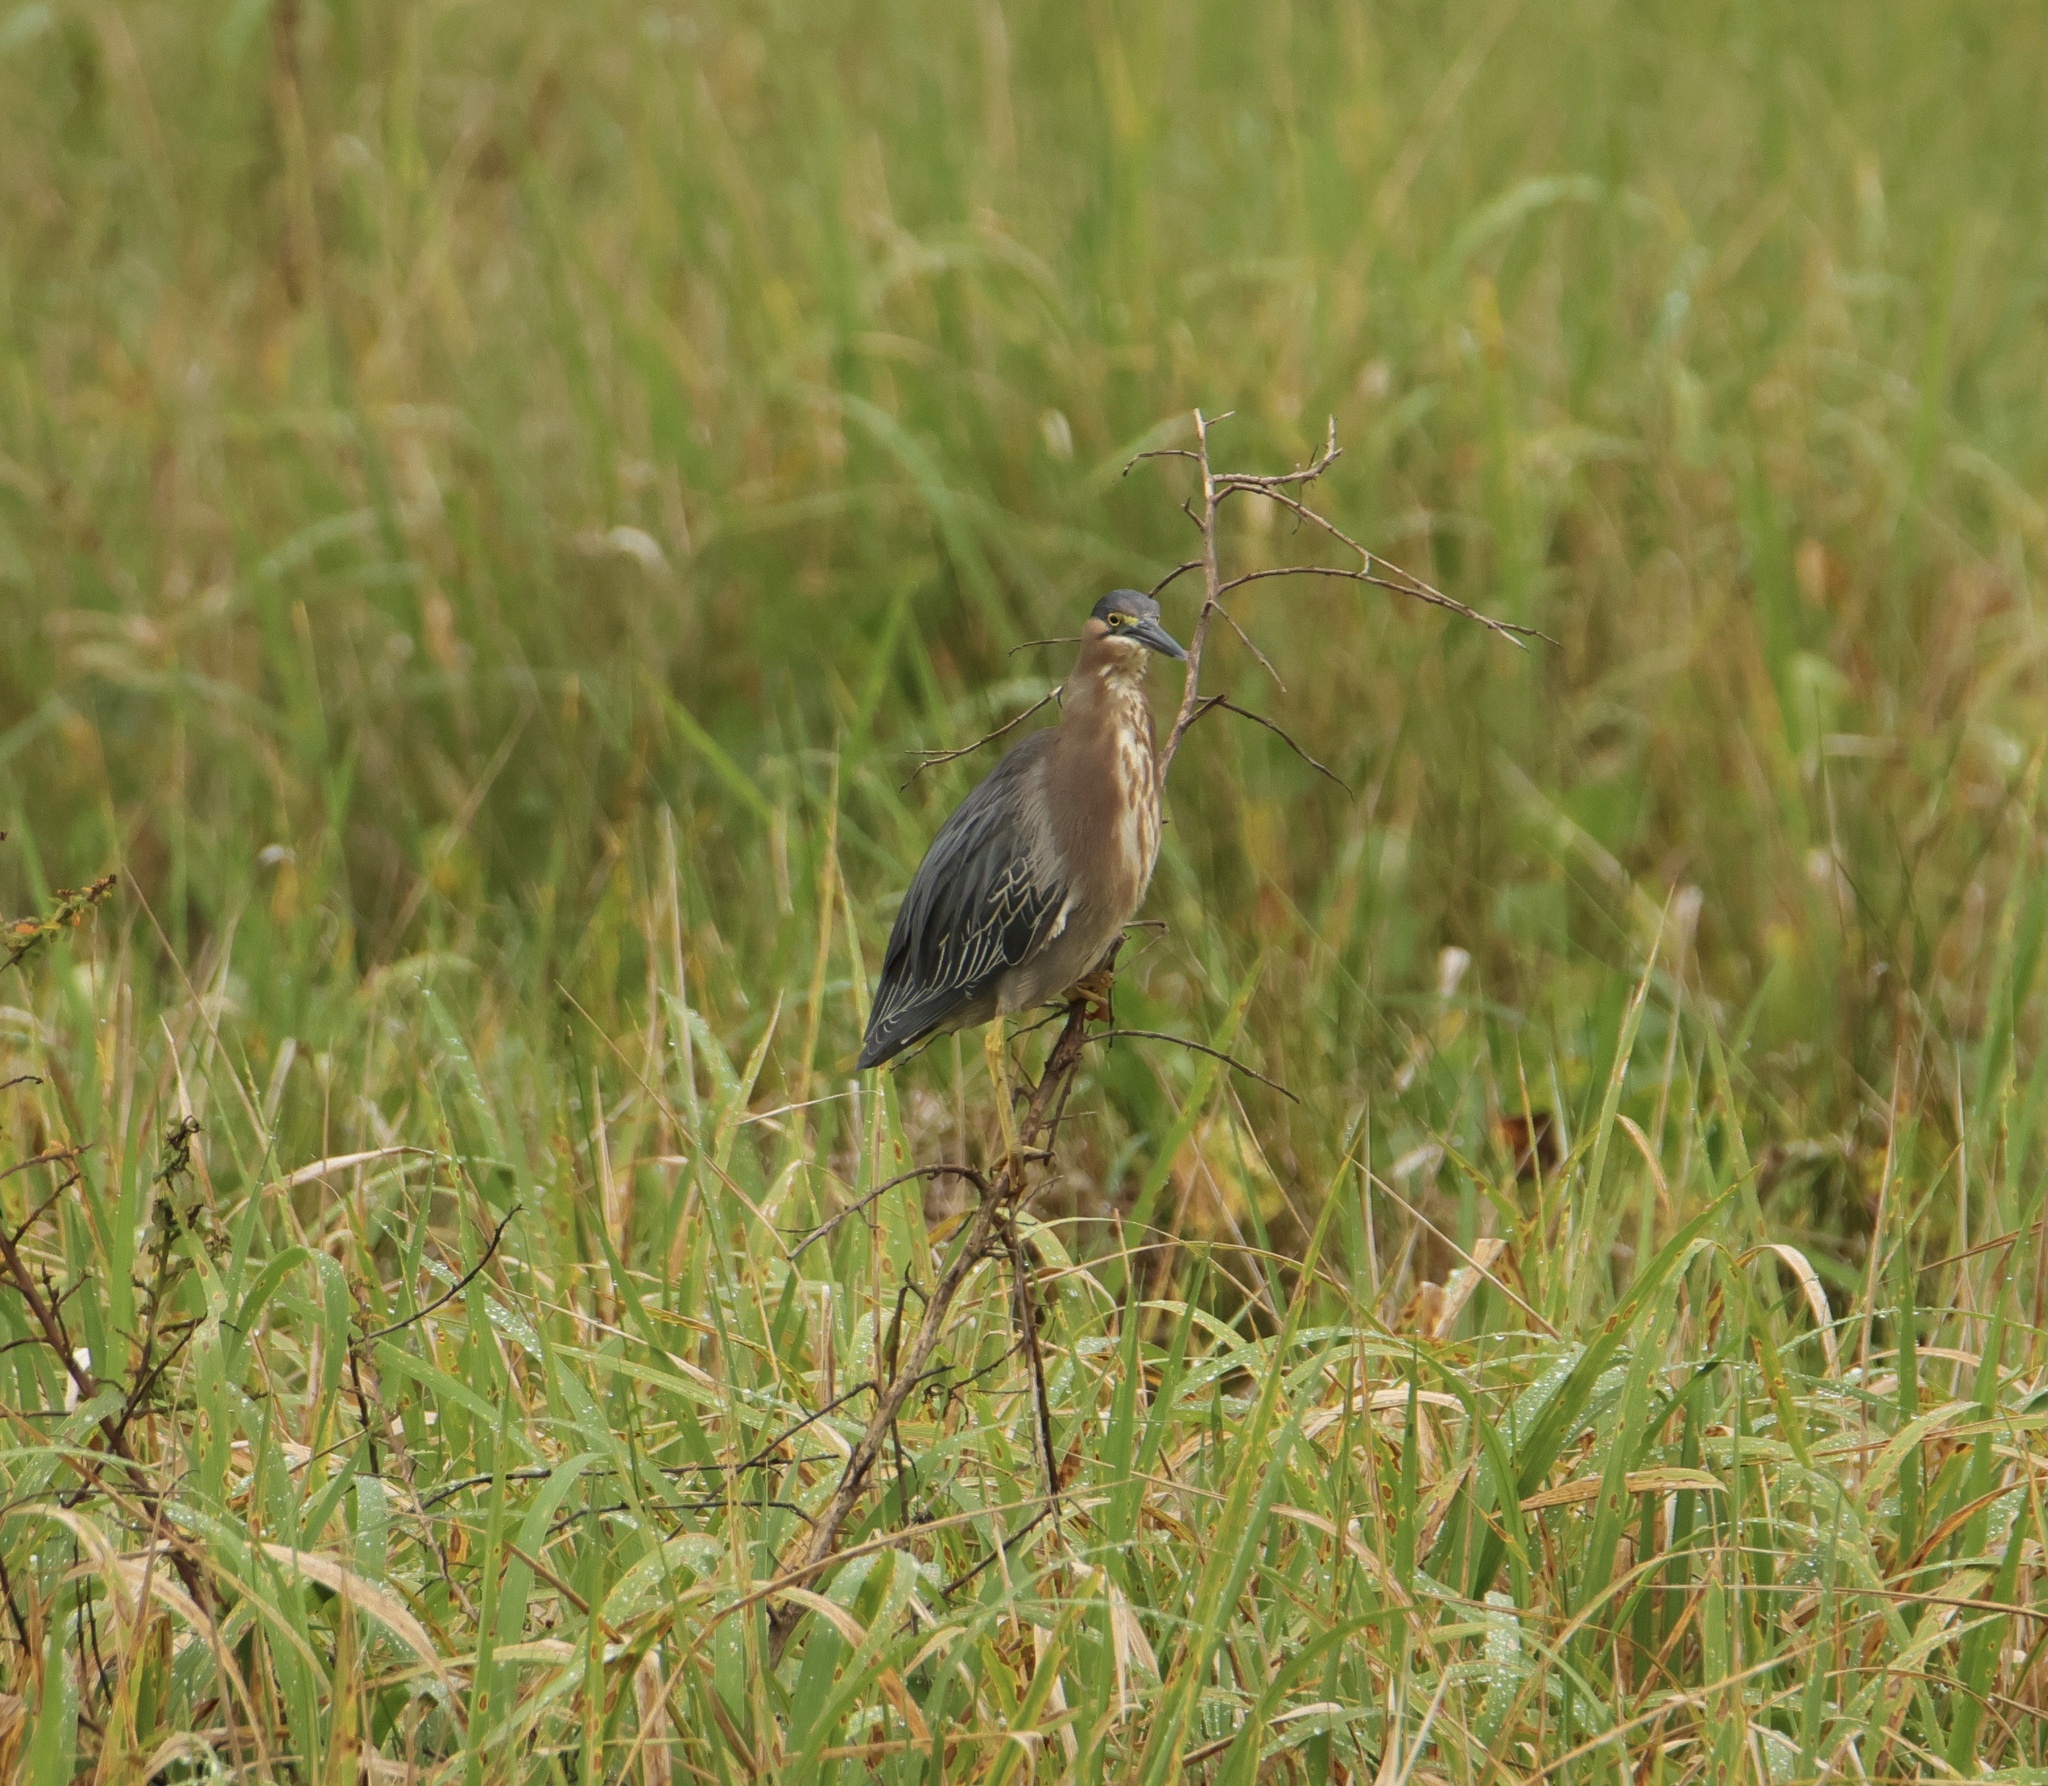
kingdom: Animalia
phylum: Chordata
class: Aves
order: Pelecaniformes
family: Ardeidae
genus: Butorides
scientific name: Butorides striata
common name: Striated heron
